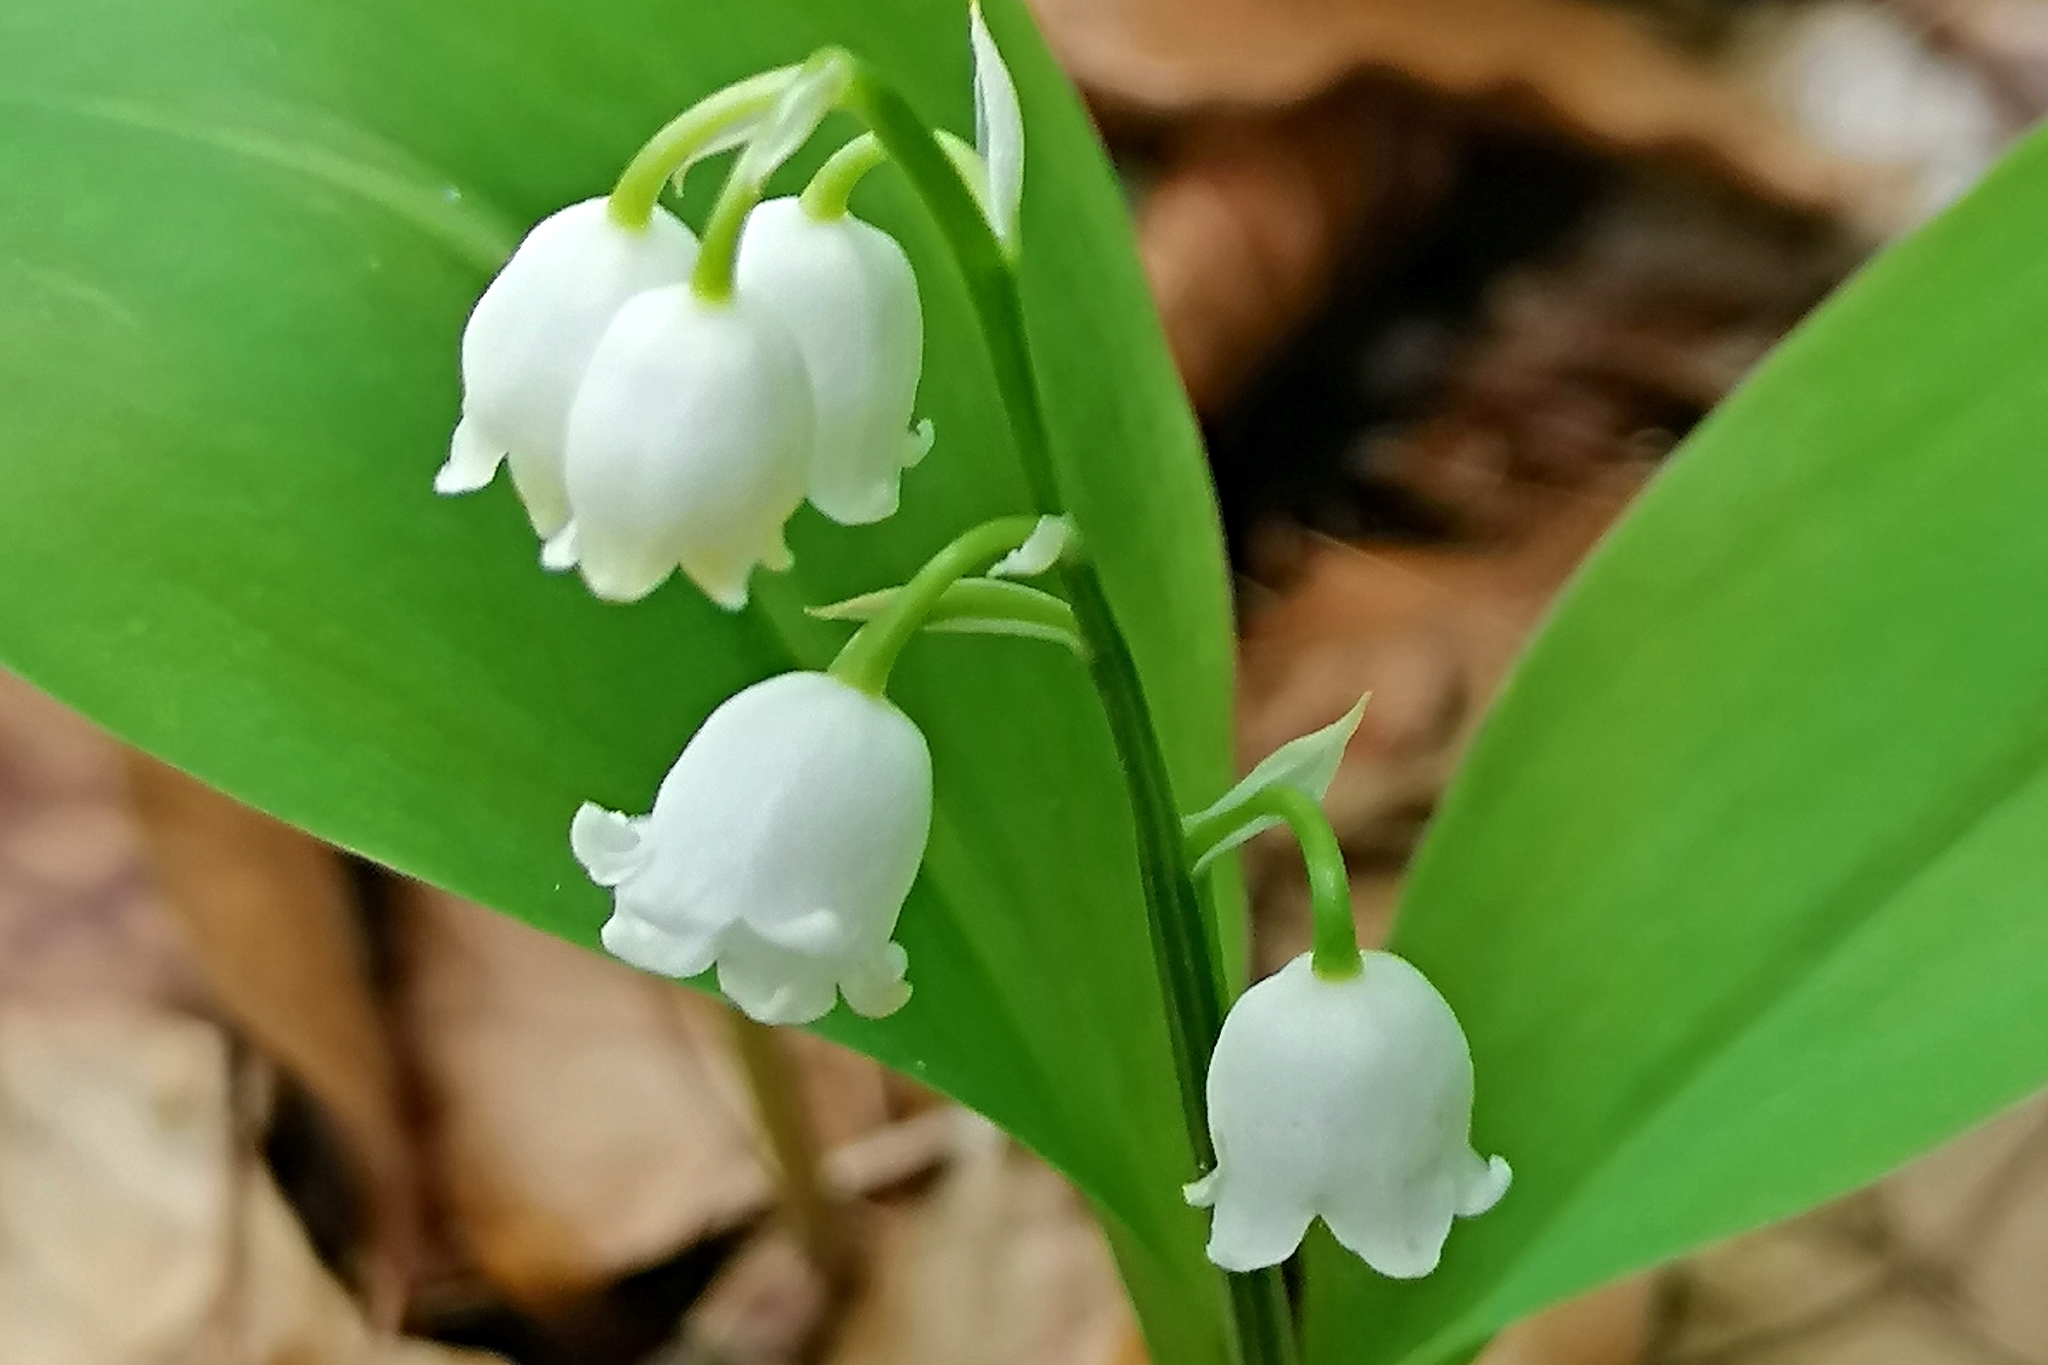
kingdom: Plantae
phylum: Tracheophyta
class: Liliopsida
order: Asparagales
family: Asparagaceae
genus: Convallaria
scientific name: Convallaria majalis
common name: Lily-of-the-valley
